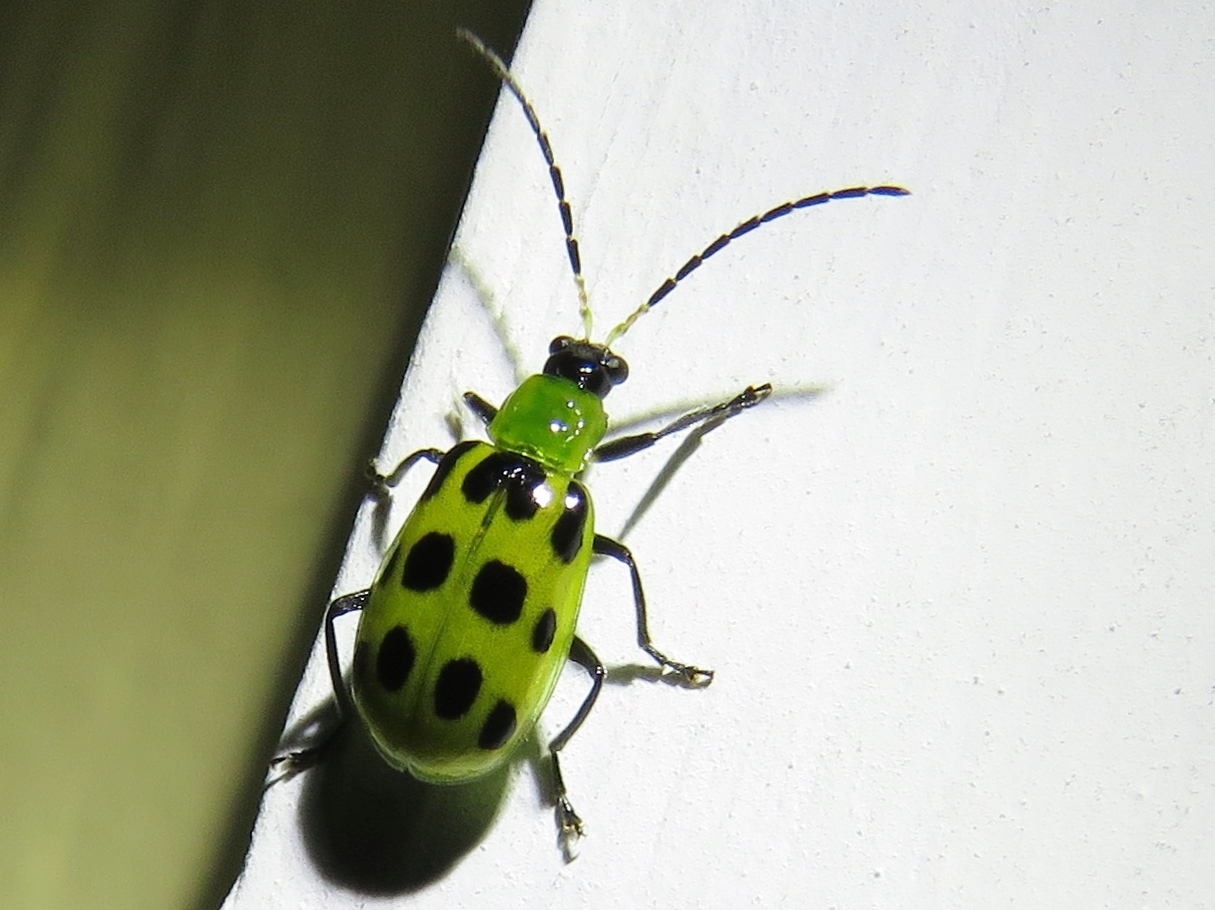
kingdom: Animalia
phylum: Arthropoda
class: Insecta
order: Coleoptera
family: Chrysomelidae
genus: Diabrotica
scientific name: Diabrotica undecimpunctata
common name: Spotted cucumber beetle
